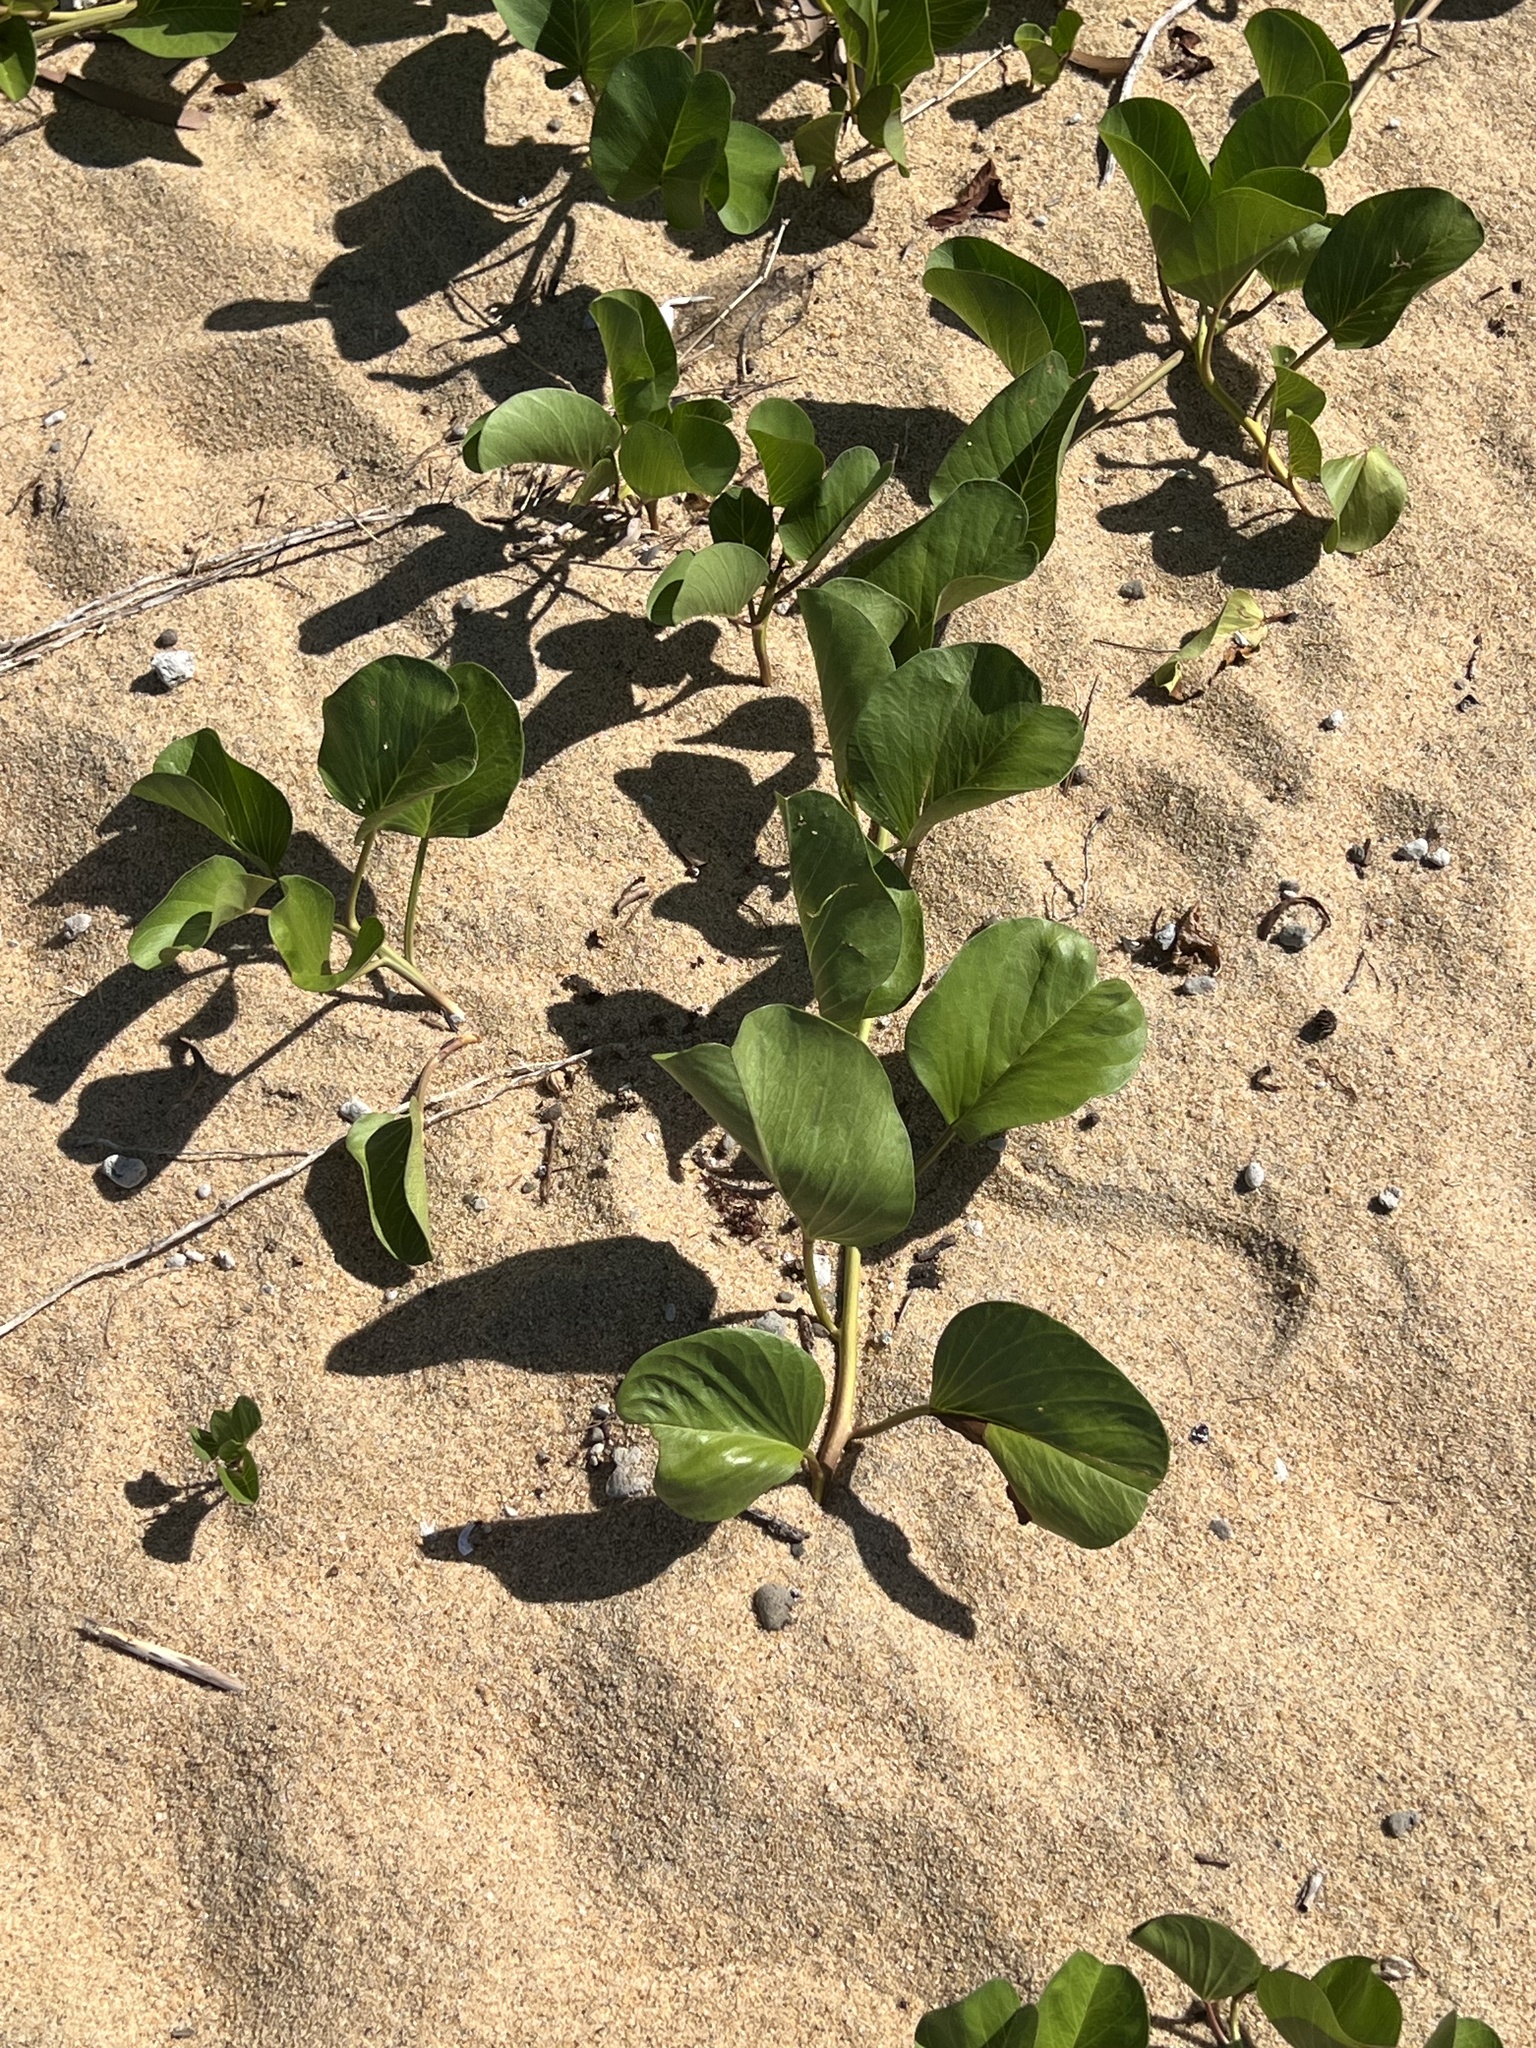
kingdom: Plantae
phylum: Tracheophyta
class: Magnoliopsida
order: Solanales
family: Convolvulaceae
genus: Ipomoea
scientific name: Ipomoea pes-caprae
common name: Beach morning glory
